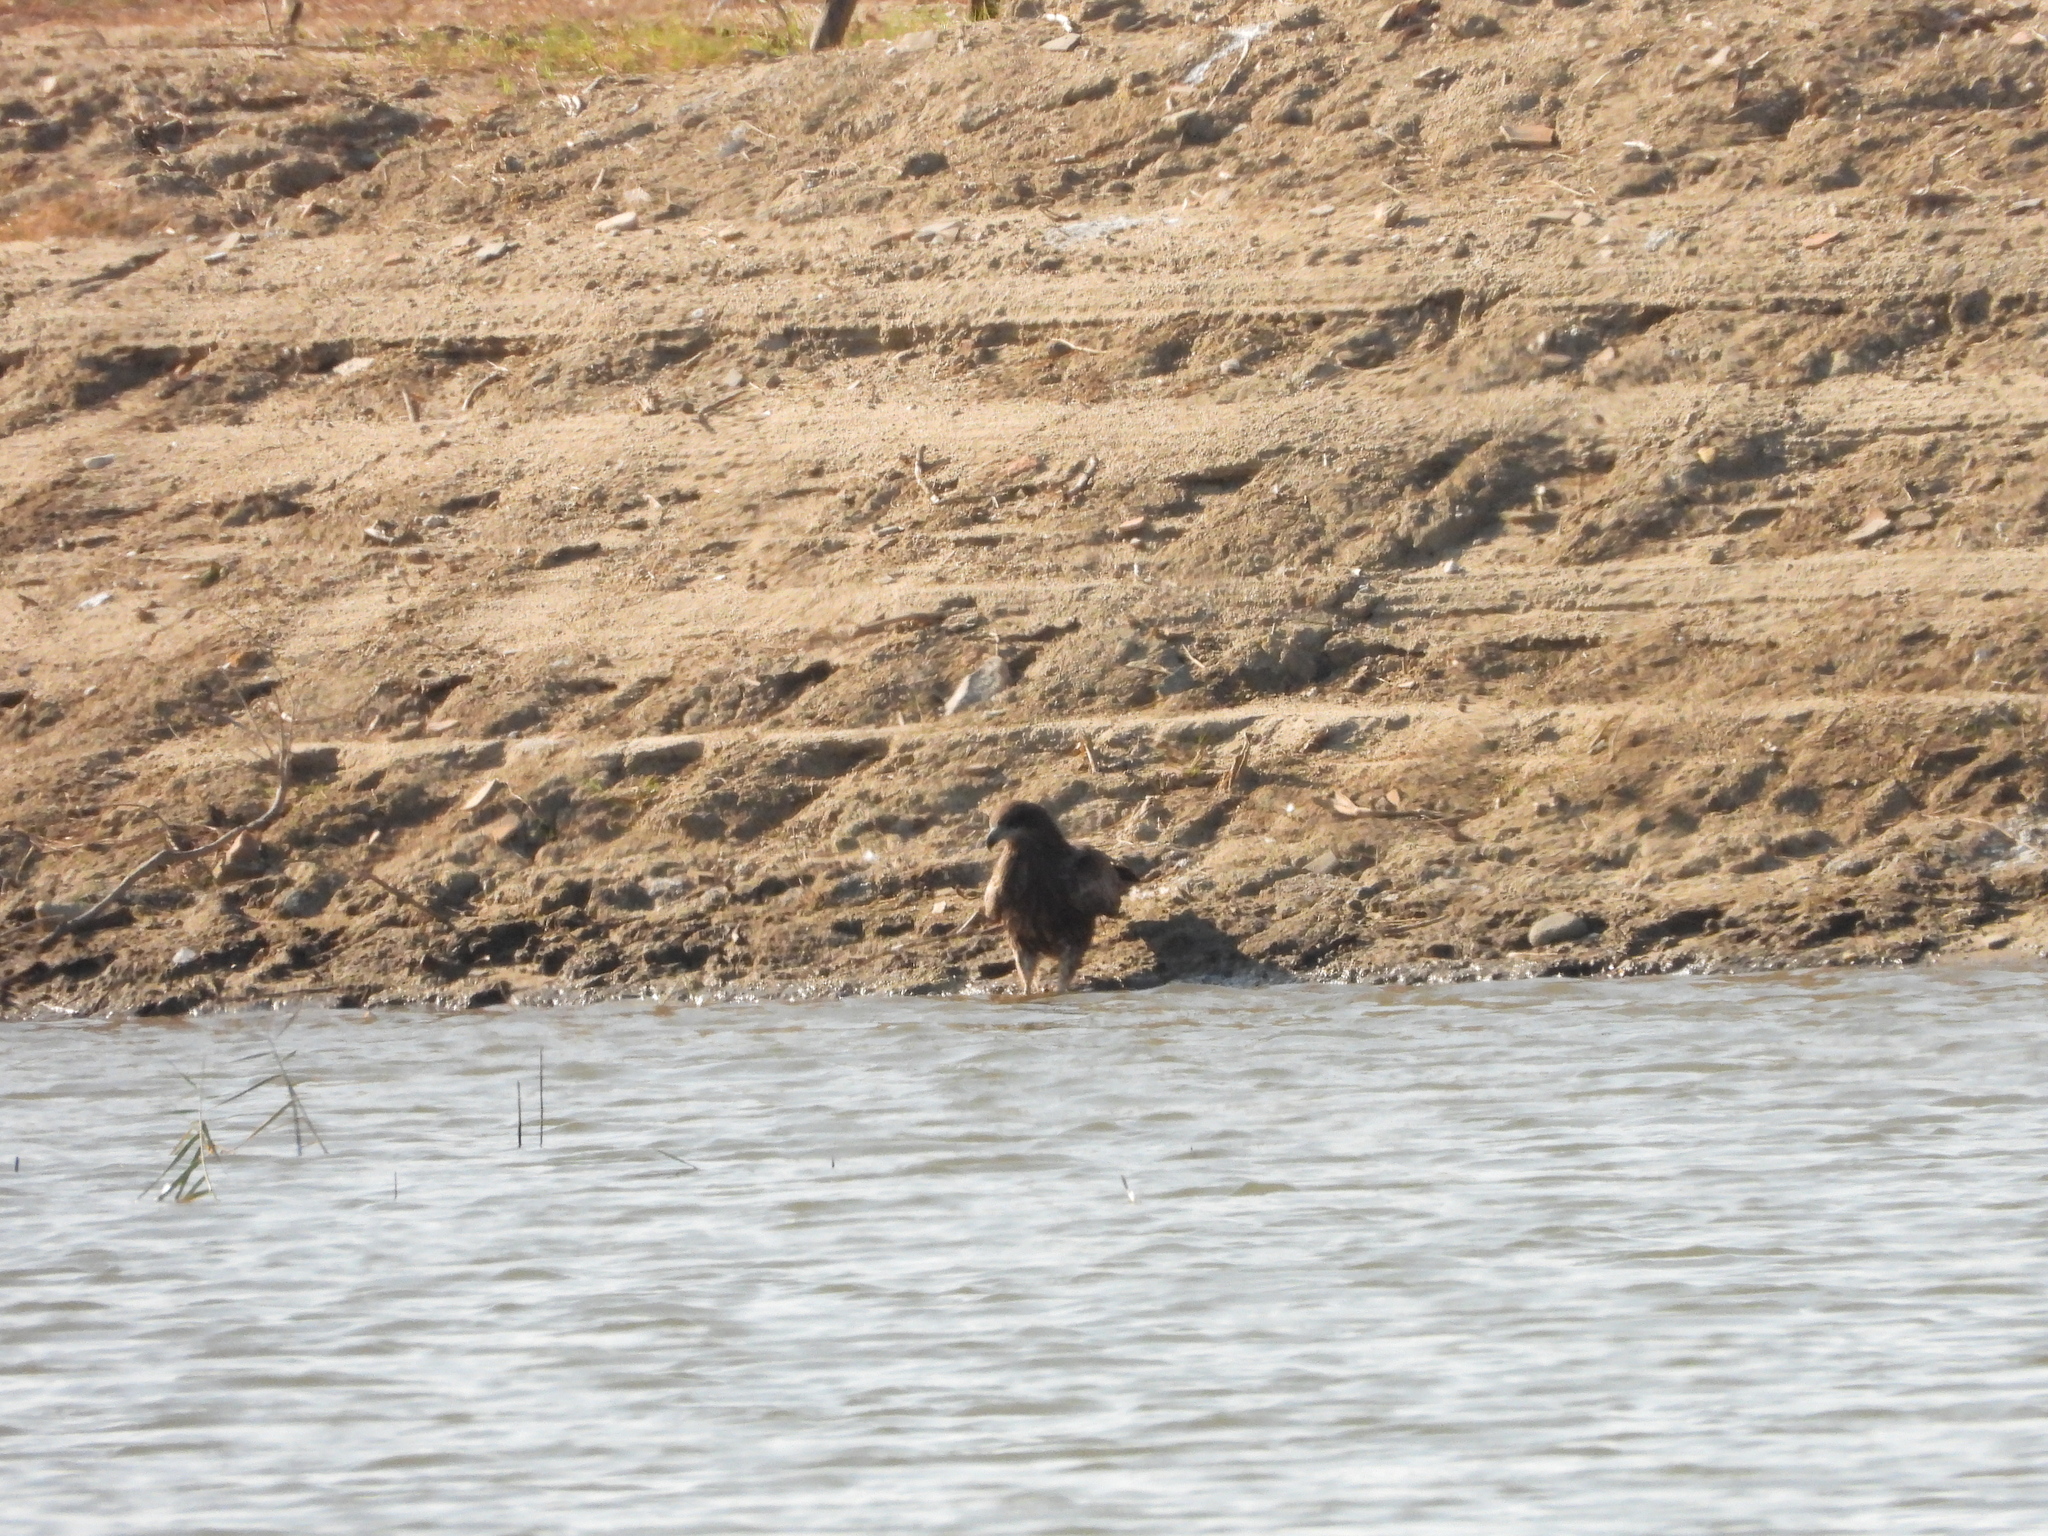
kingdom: Animalia
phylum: Chordata
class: Aves
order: Accipitriformes
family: Accipitridae
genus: Milvus
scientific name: Milvus migrans
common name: Black kite
